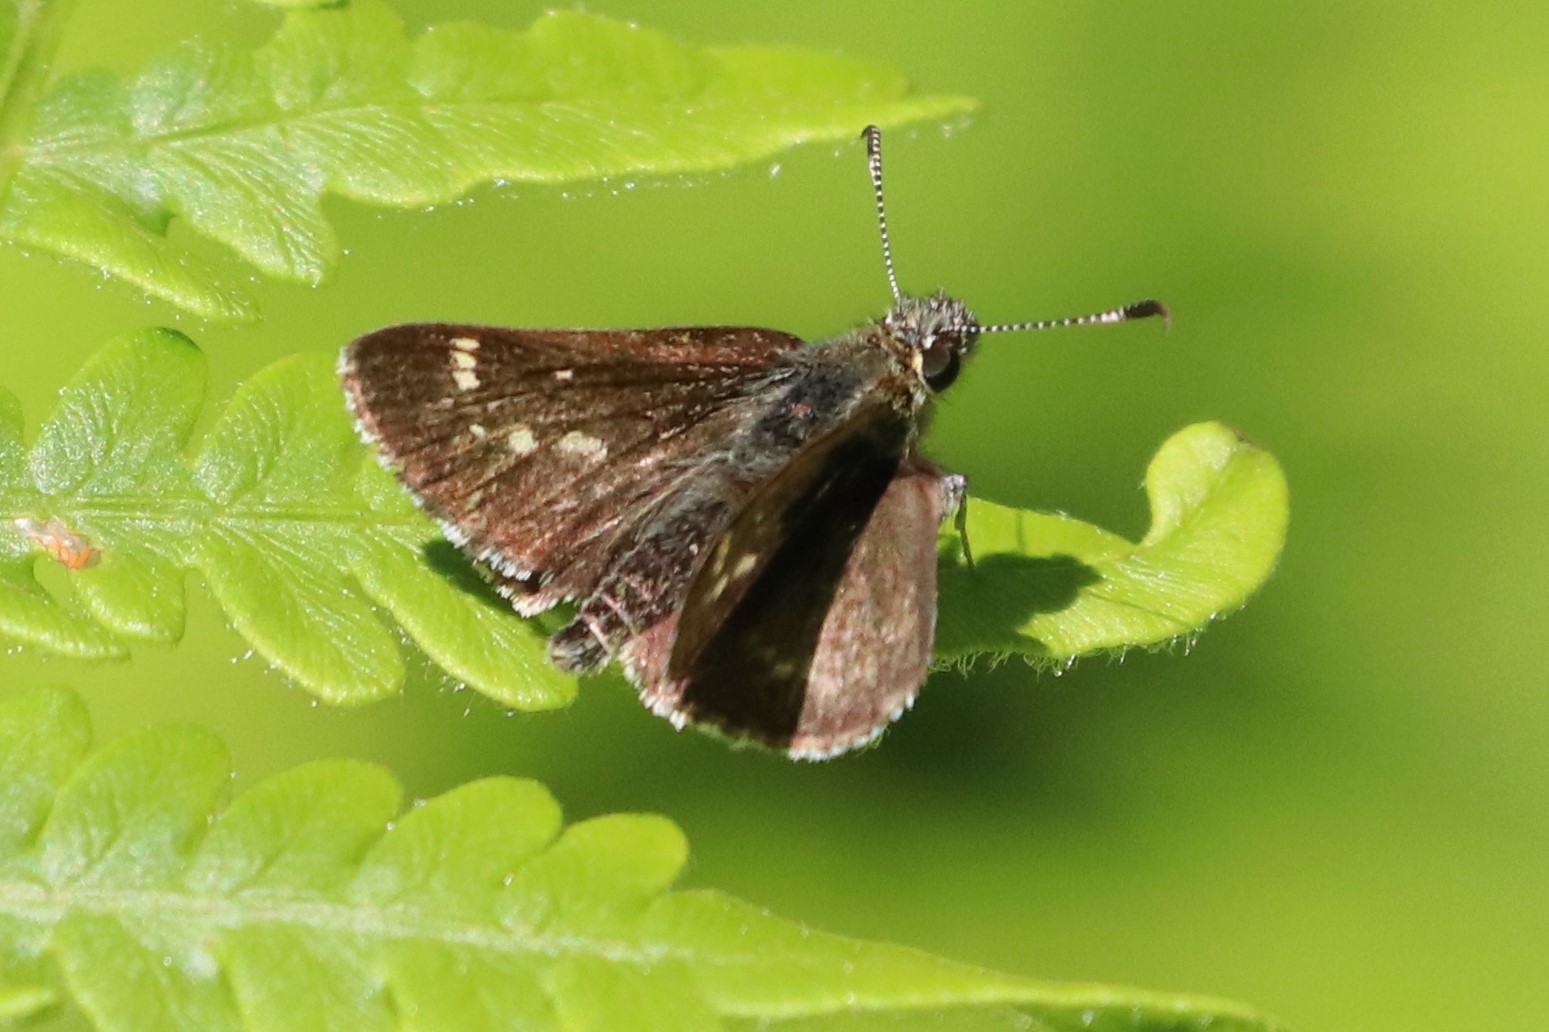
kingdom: Animalia
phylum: Arthropoda
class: Insecta
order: Lepidoptera
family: Hesperiidae
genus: Mastor
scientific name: Mastor hegon
